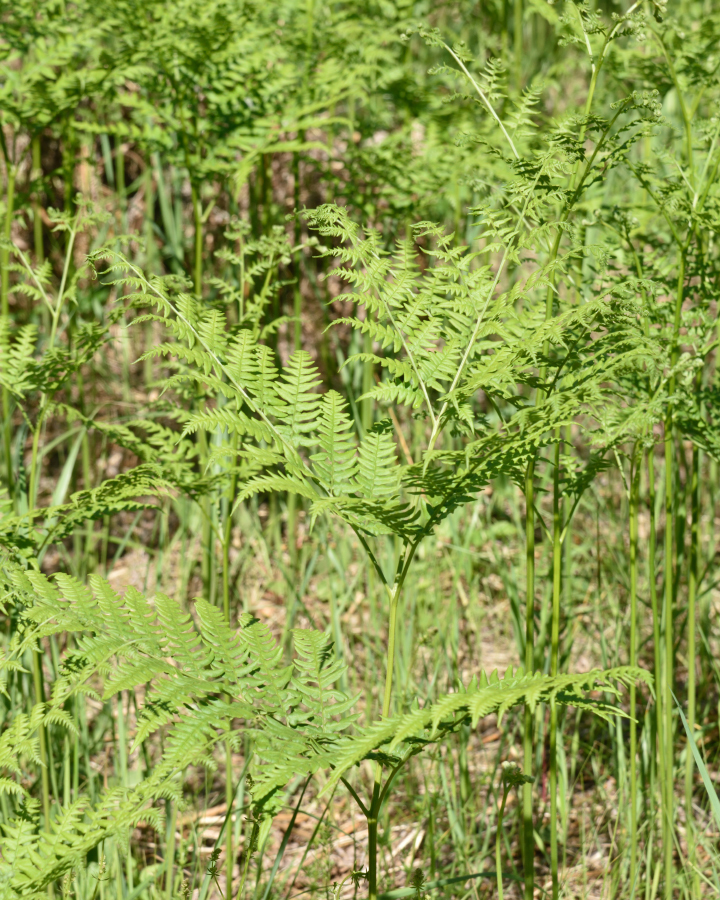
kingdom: Plantae
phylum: Tracheophyta
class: Polypodiopsida
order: Polypodiales
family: Dennstaedtiaceae
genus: Pteridium
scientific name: Pteridium aquilinum
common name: Bracken
